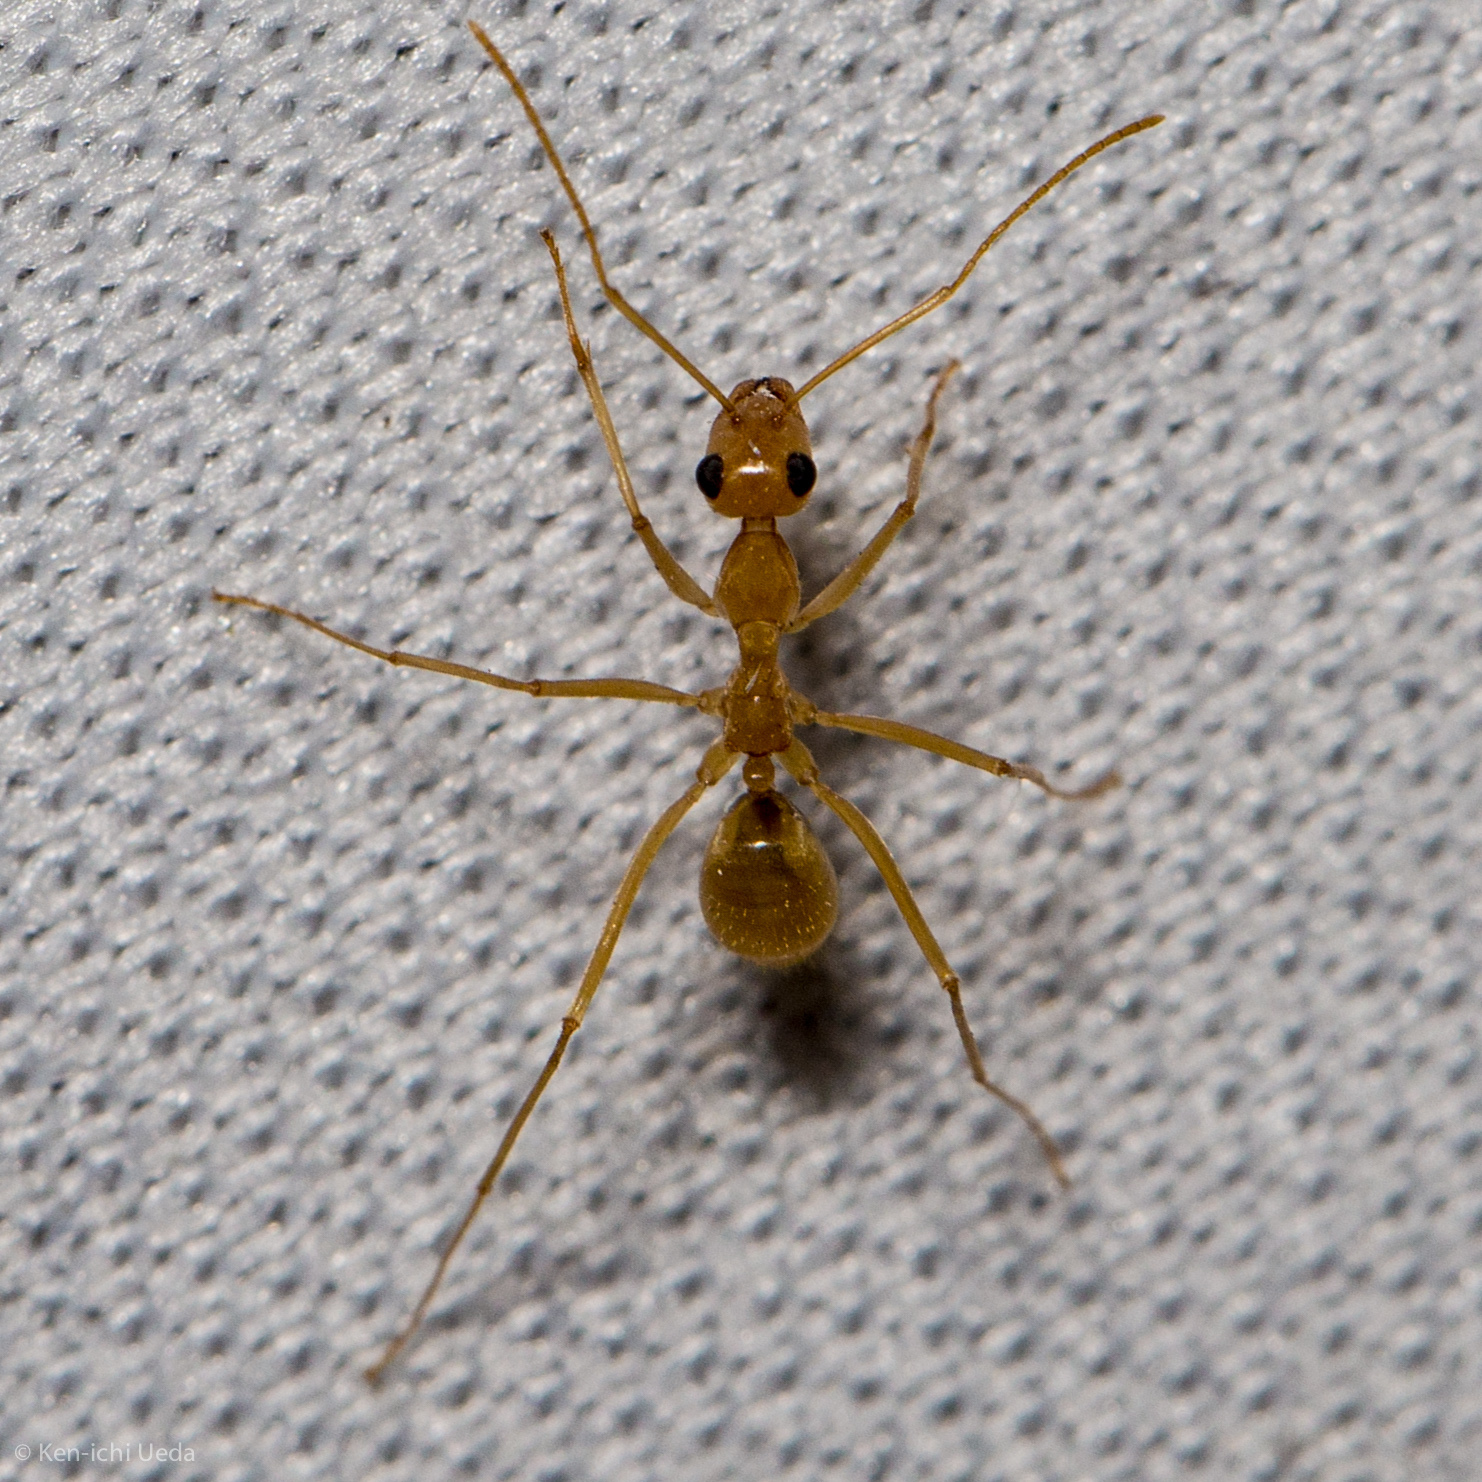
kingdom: Animalia
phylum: Arthropoda
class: Insecta
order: Hymenoptera
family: Formicidae
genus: Myrmecocystus
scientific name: Myrmecocystus mexicanus
